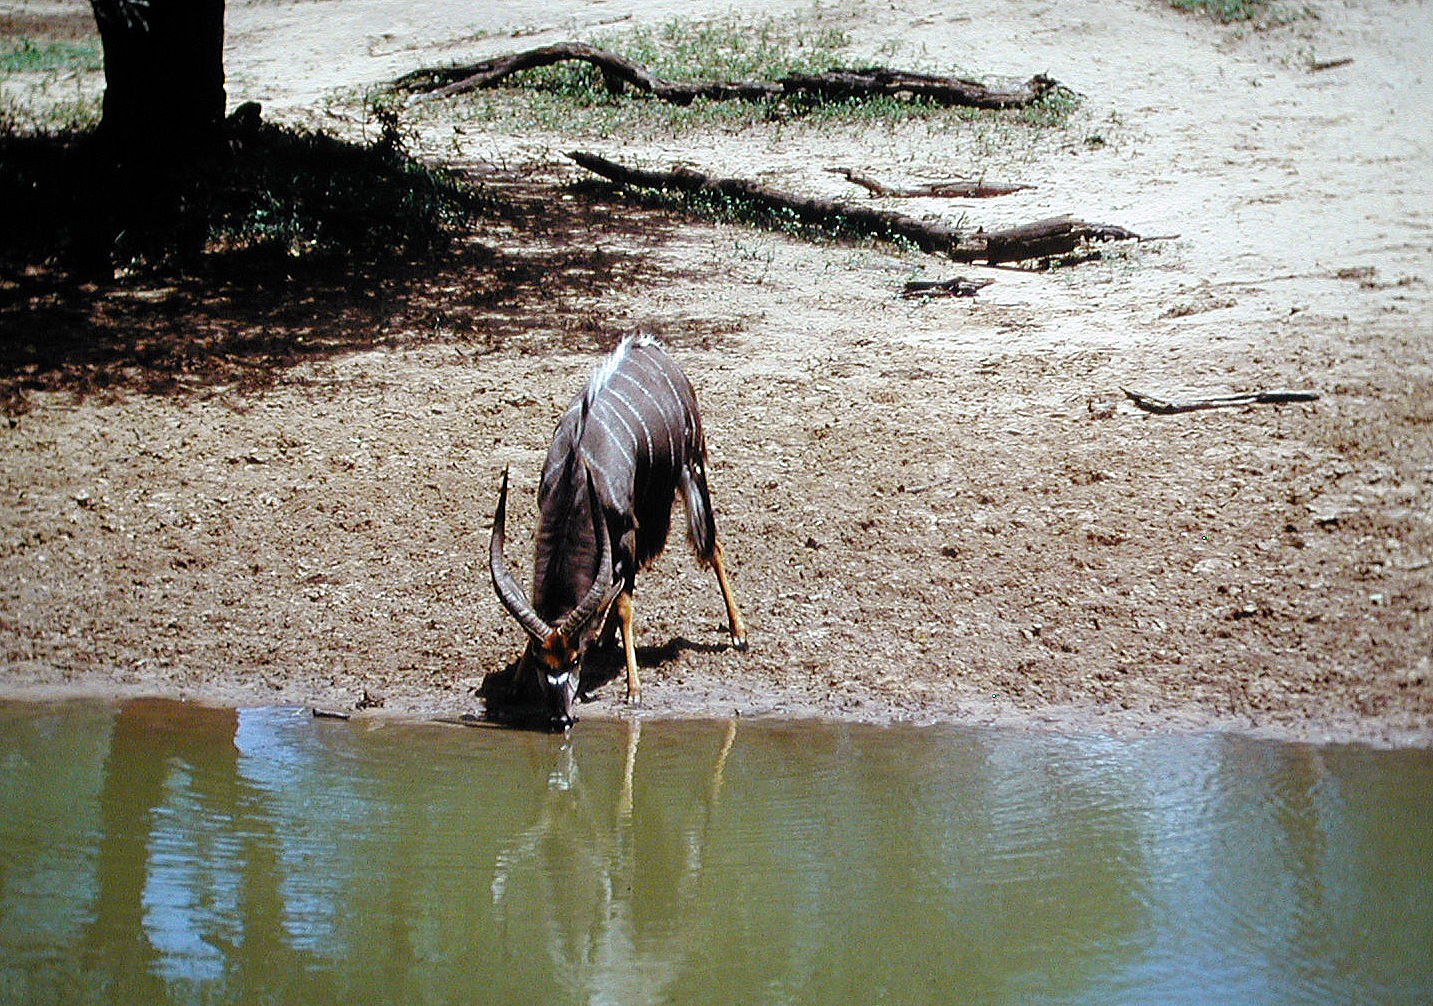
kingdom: Animalia
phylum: Chordata
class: Mammalia
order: Artiodactyla
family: Bovidae
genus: Tragelaphus
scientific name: Tragelaphus angasii
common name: Nyala
